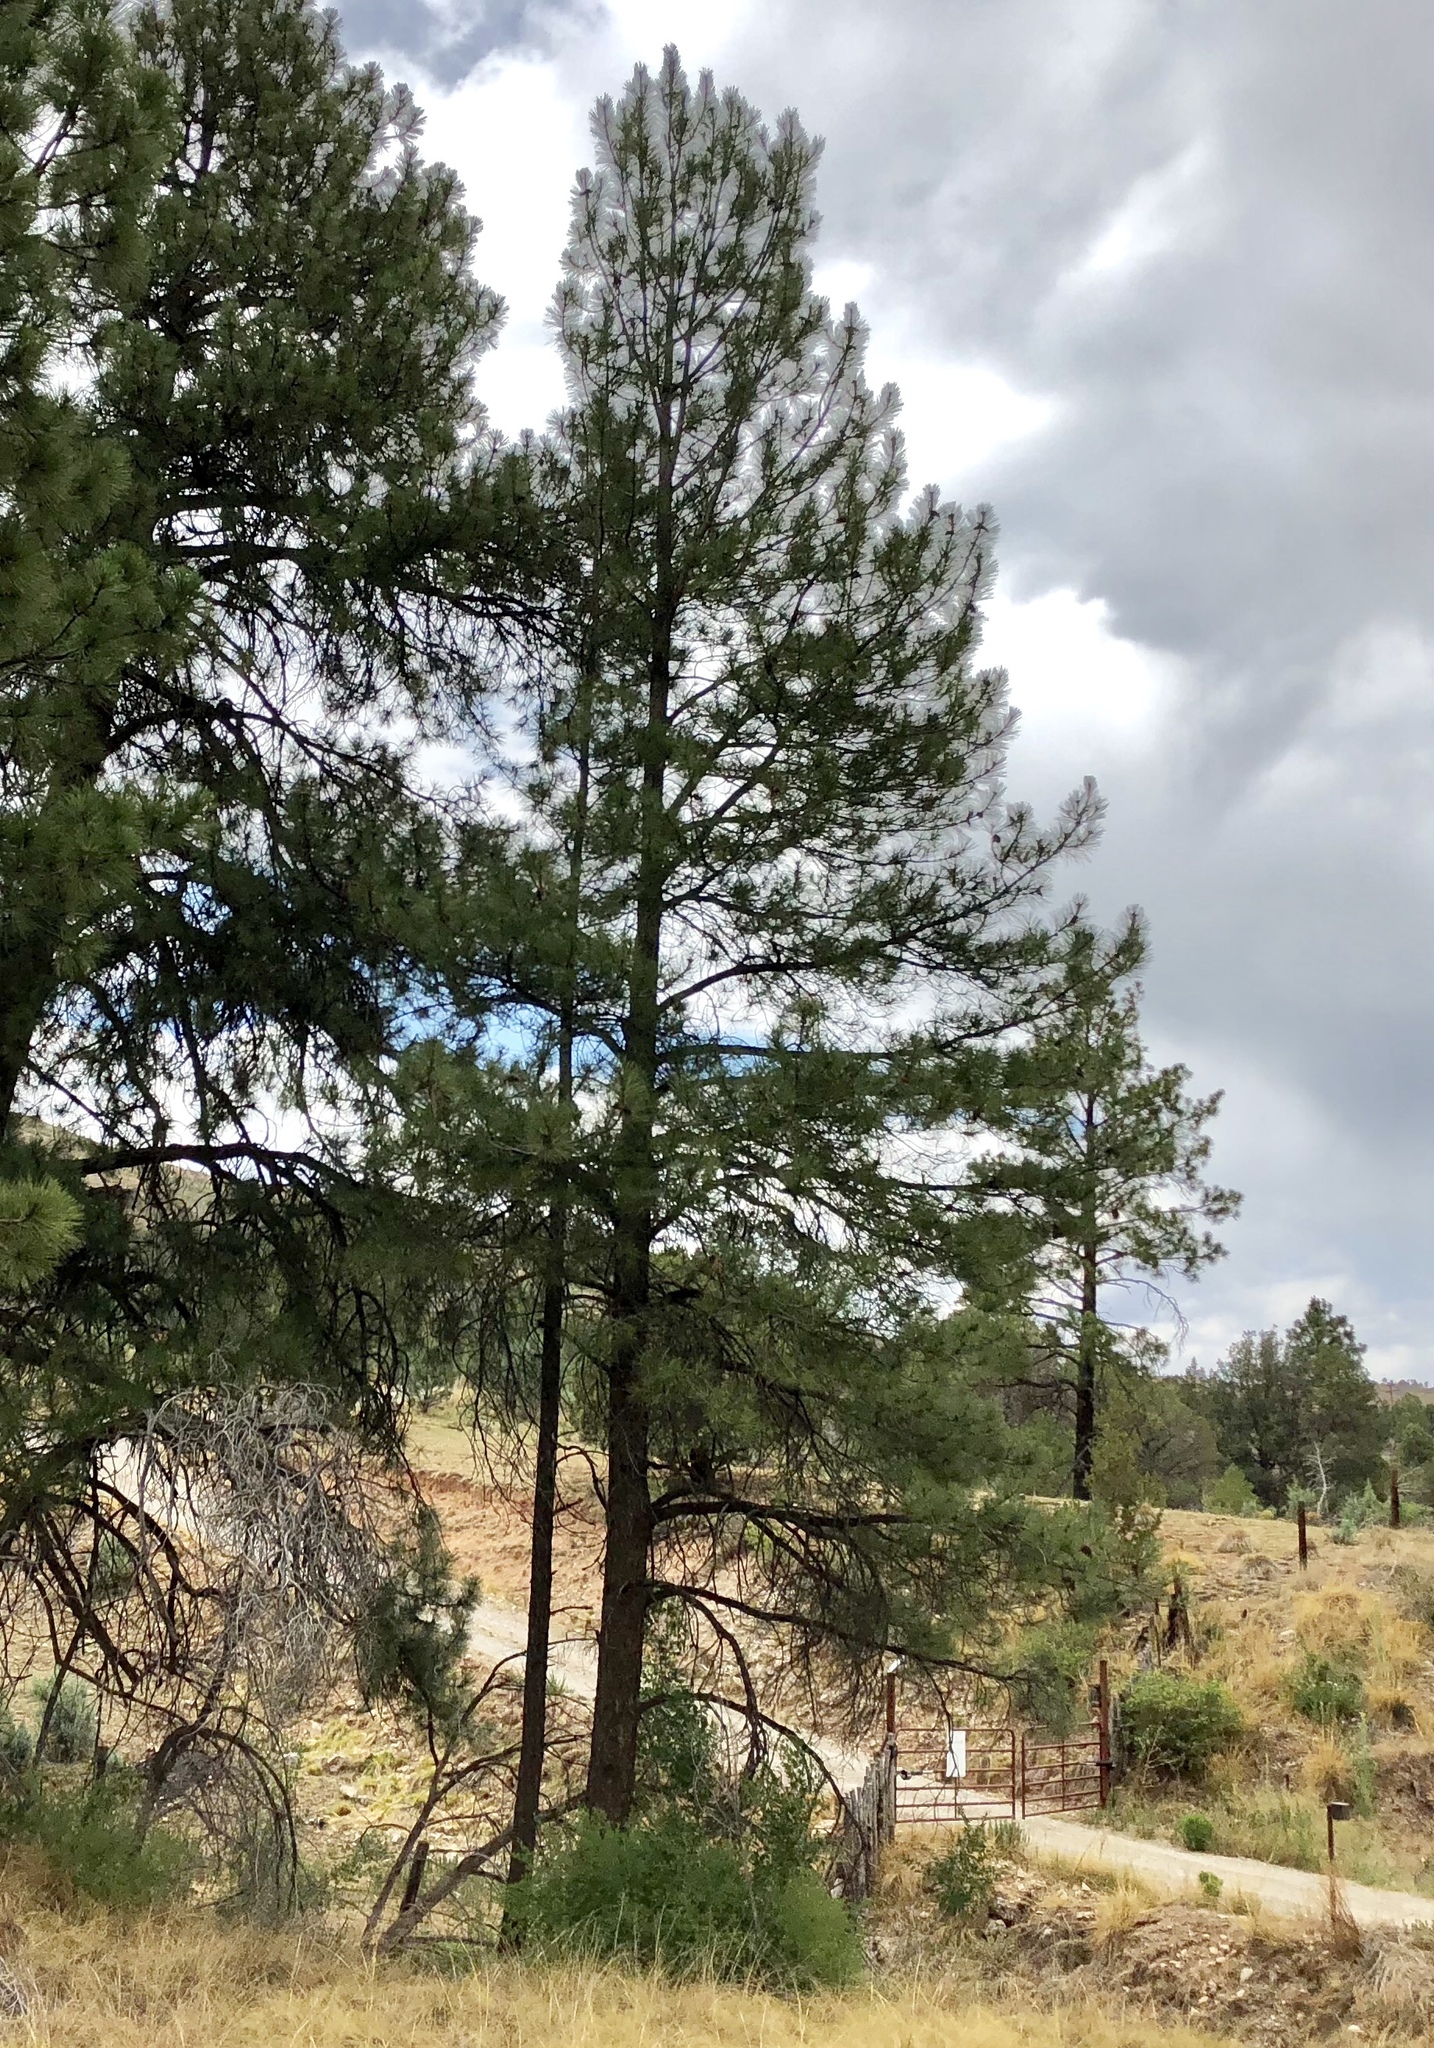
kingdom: Plantae
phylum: Tracheophyta
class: Pinopsida
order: Pinales
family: Pinaceae
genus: Pinus
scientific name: Pinus ponderosa
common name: Western yellow-pine
